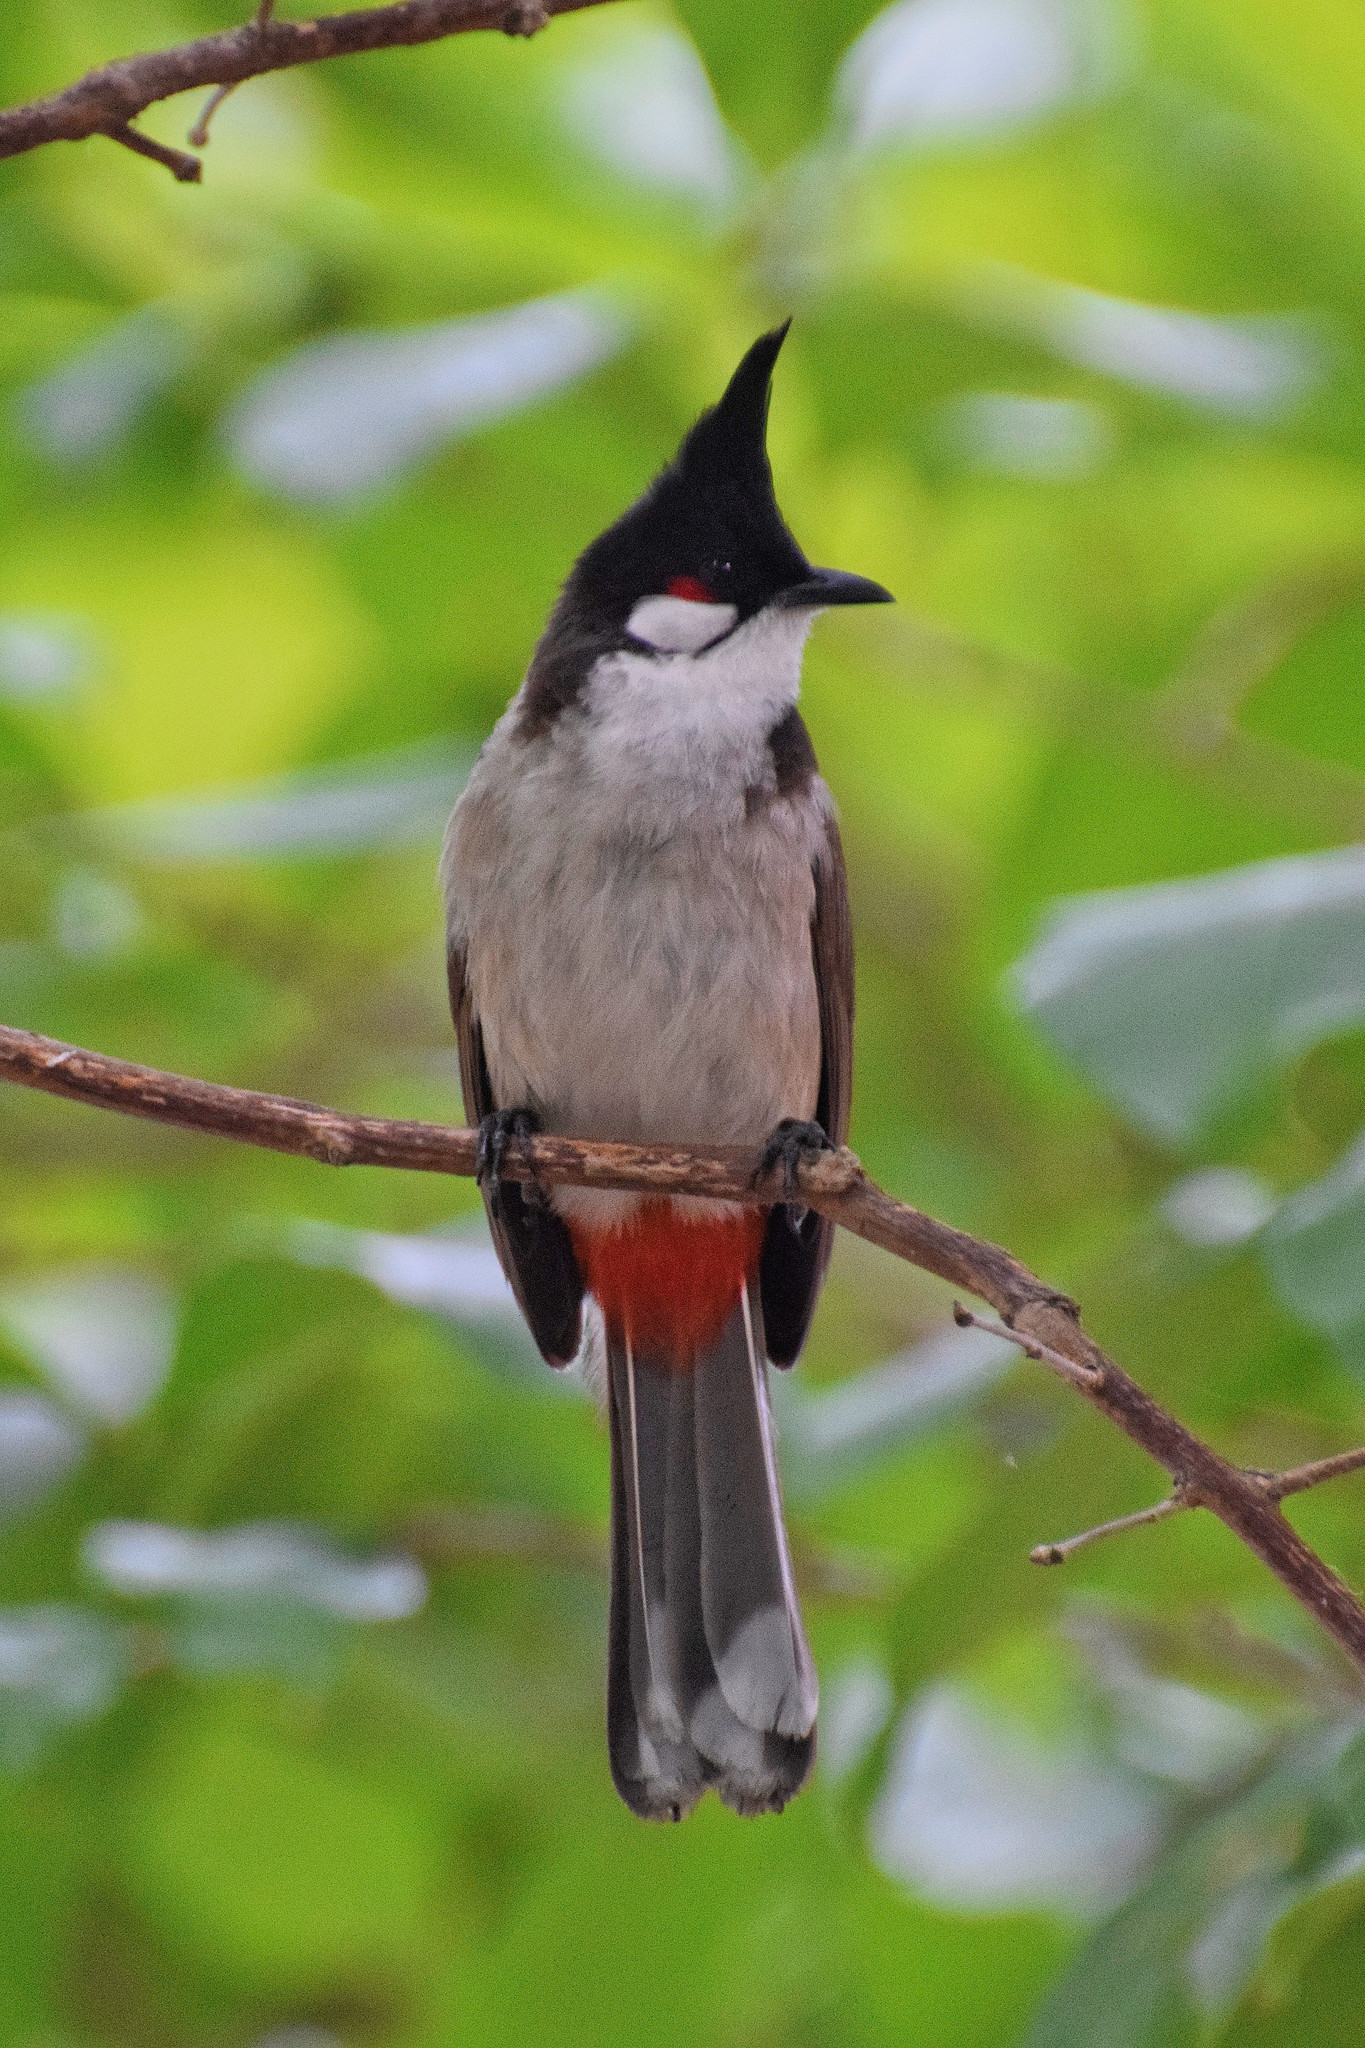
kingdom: Animalia
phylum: Chordata
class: Aves
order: Passeriformes
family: Pycnonotidae
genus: Pycnonotus
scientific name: Pycnonotus jocosus
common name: Red-whiskered bulbul
